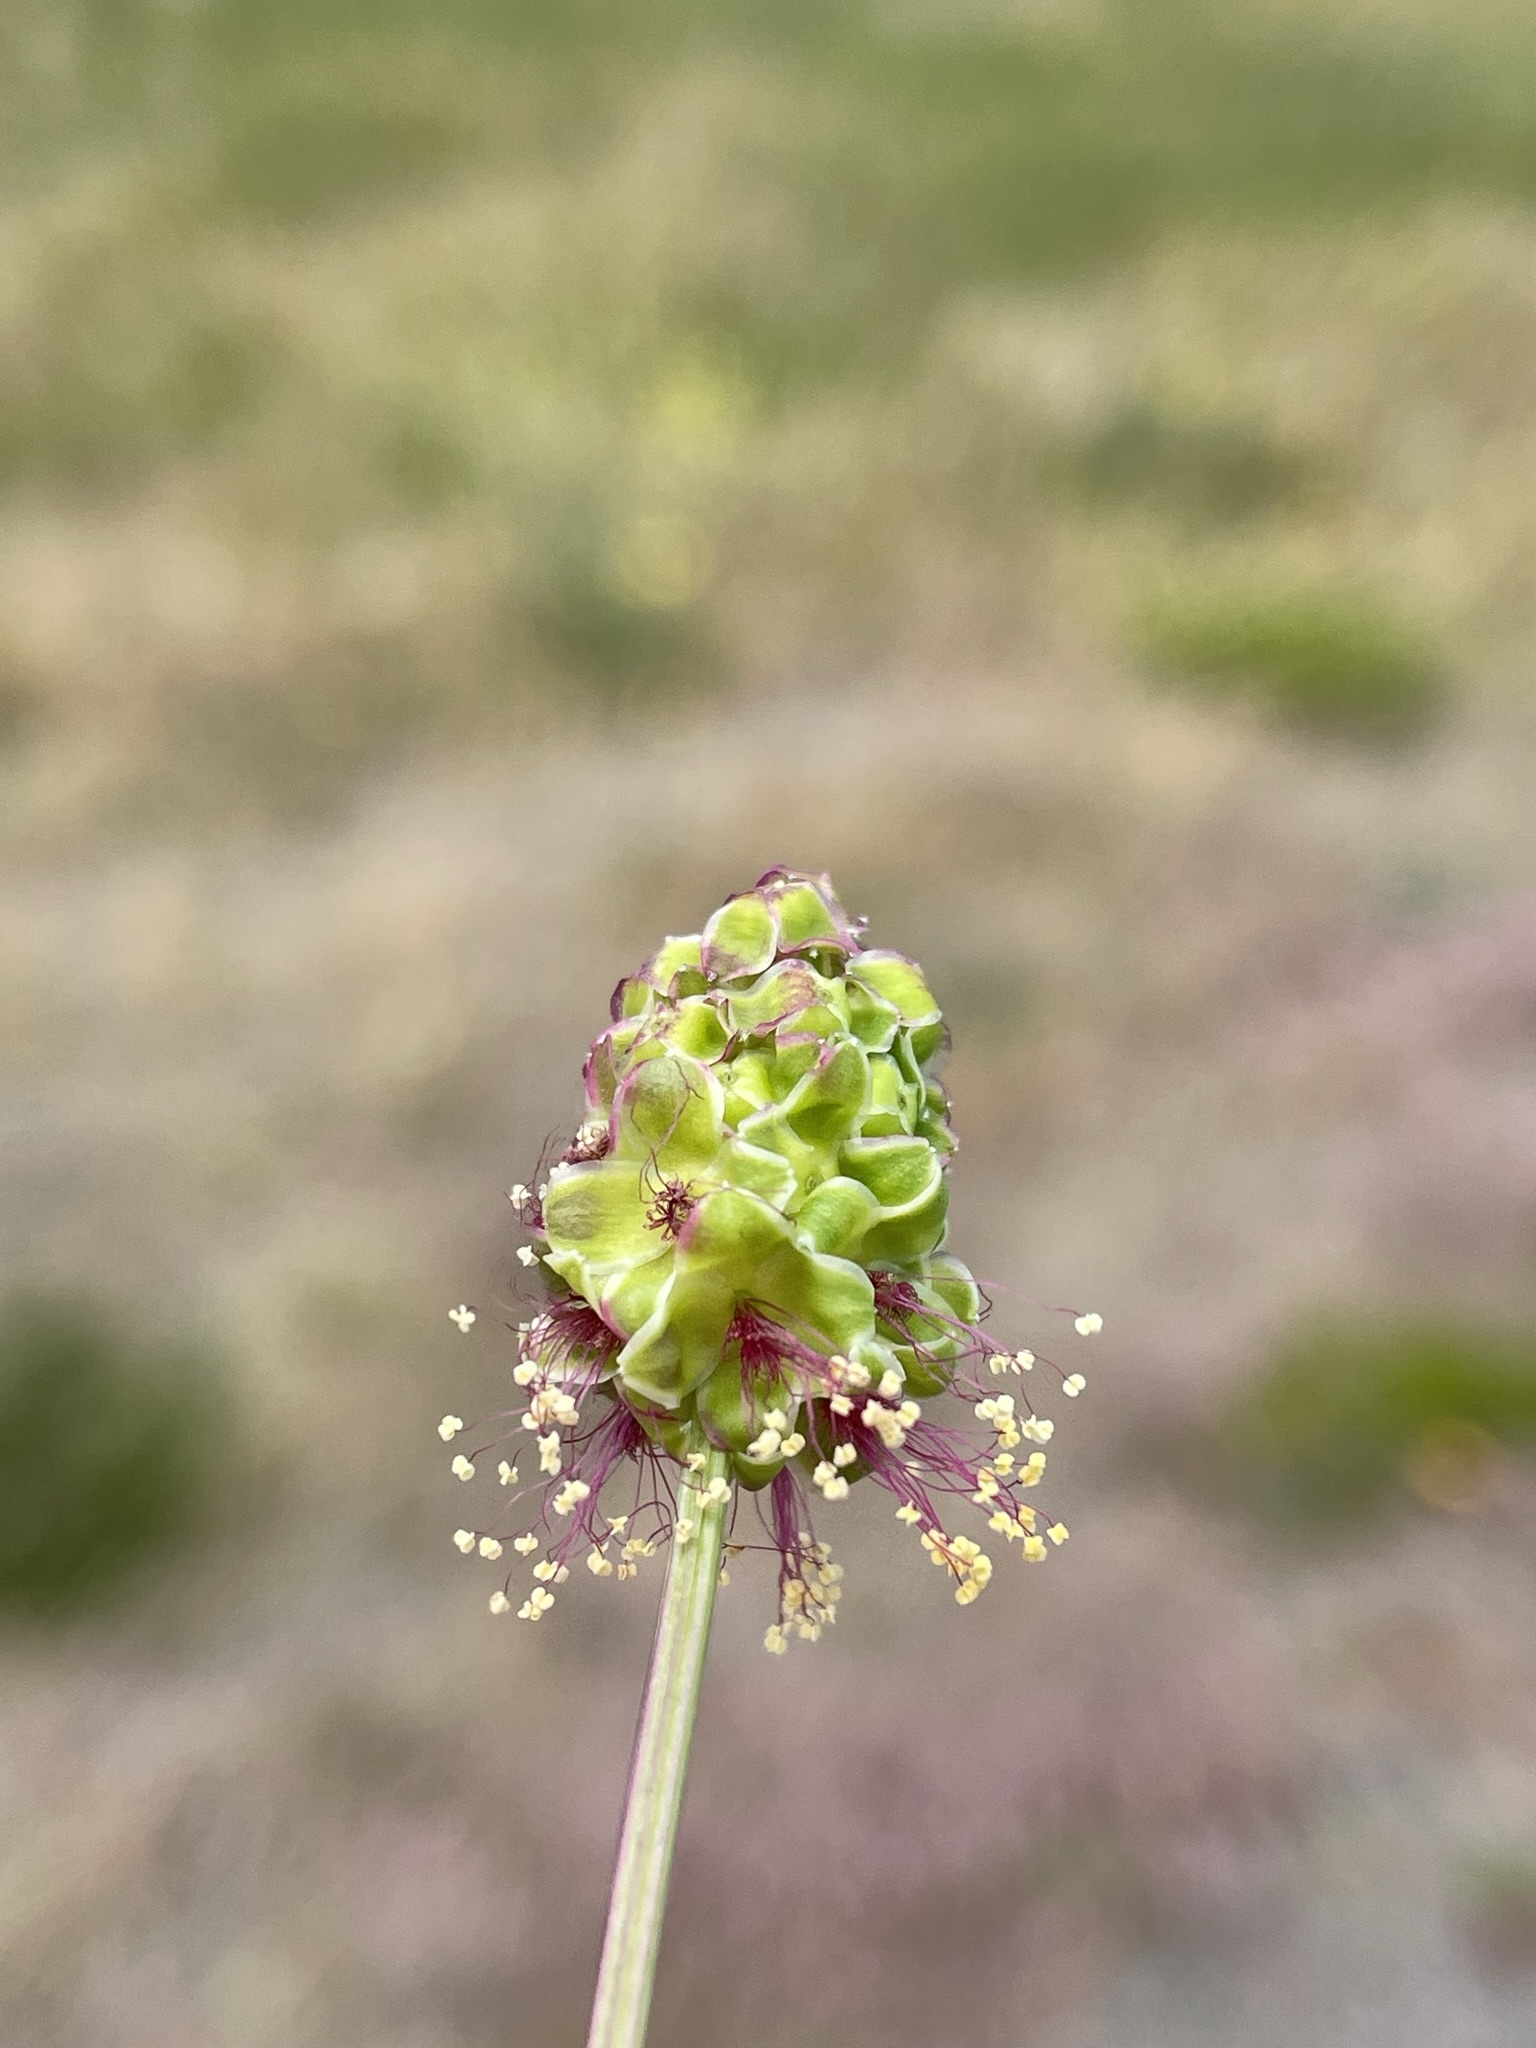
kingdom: Plantae
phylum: Tracheophyta
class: Magnoliopsida
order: Rosales
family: Rosaceae
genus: Poterium
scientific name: Poterium sanguisorba
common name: Salad burnet
